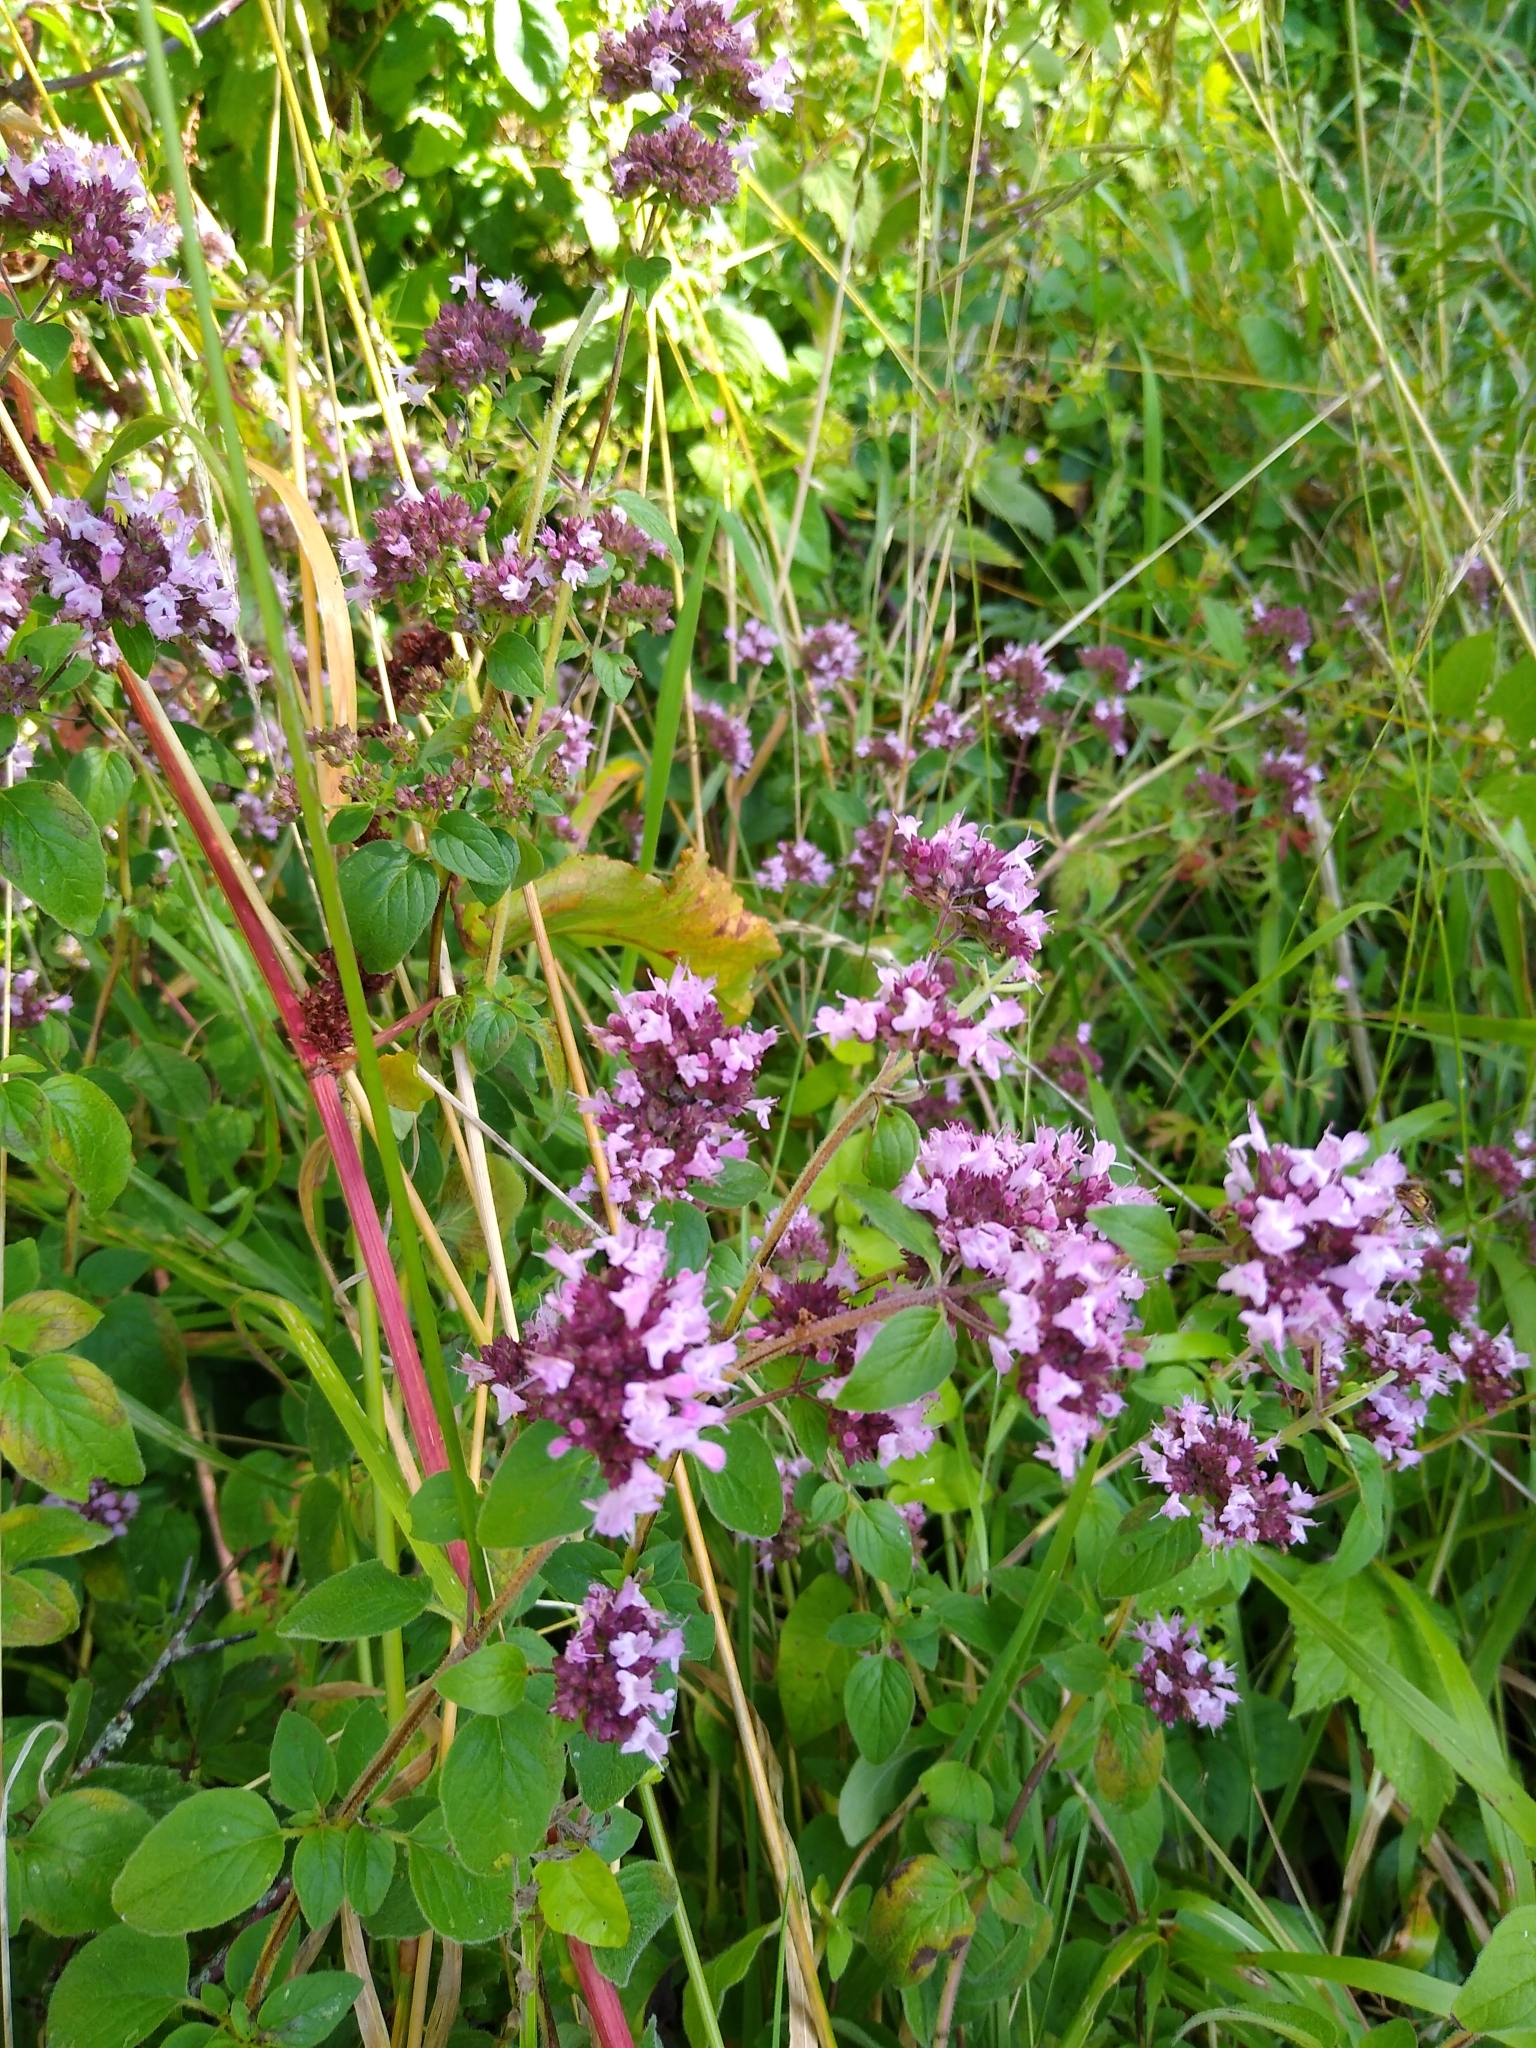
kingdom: Plantae
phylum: Tracheophyta
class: Magnoliopsida
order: Lamiales
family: Lamiaceae
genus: Origanum
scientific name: Origanum vulgare
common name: Wild marjoram
